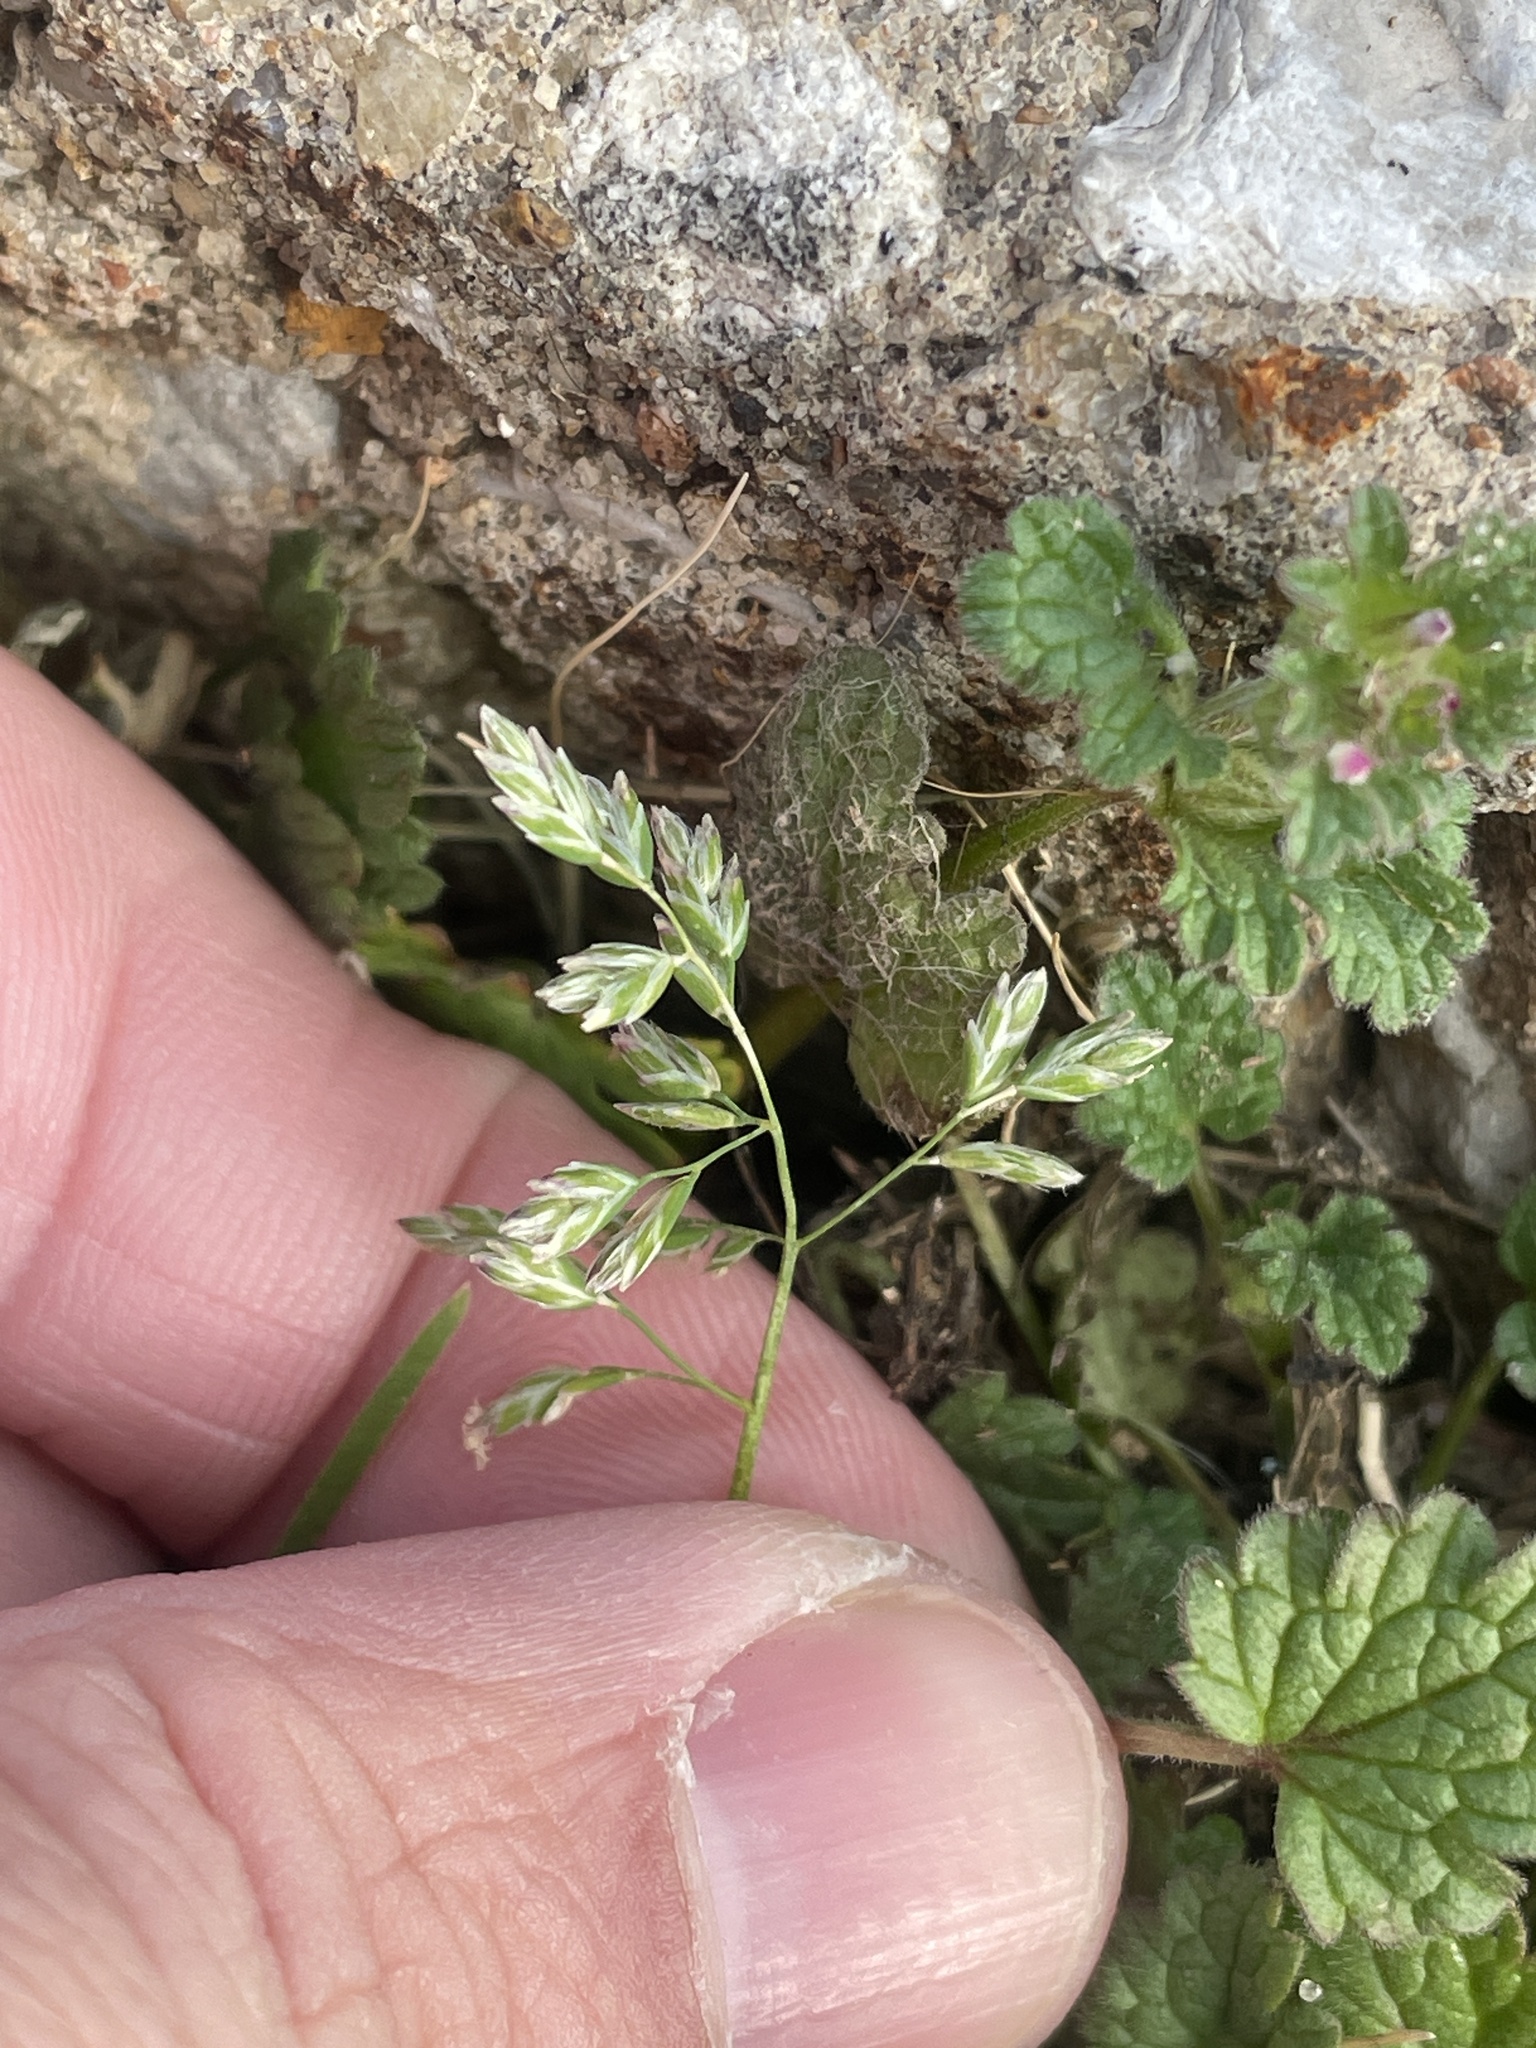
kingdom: Plantae
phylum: Tracheophyta
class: Liliopsida
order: Poales
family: Poaceae
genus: Poa
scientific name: Poa annua
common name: Annual bluegrass
